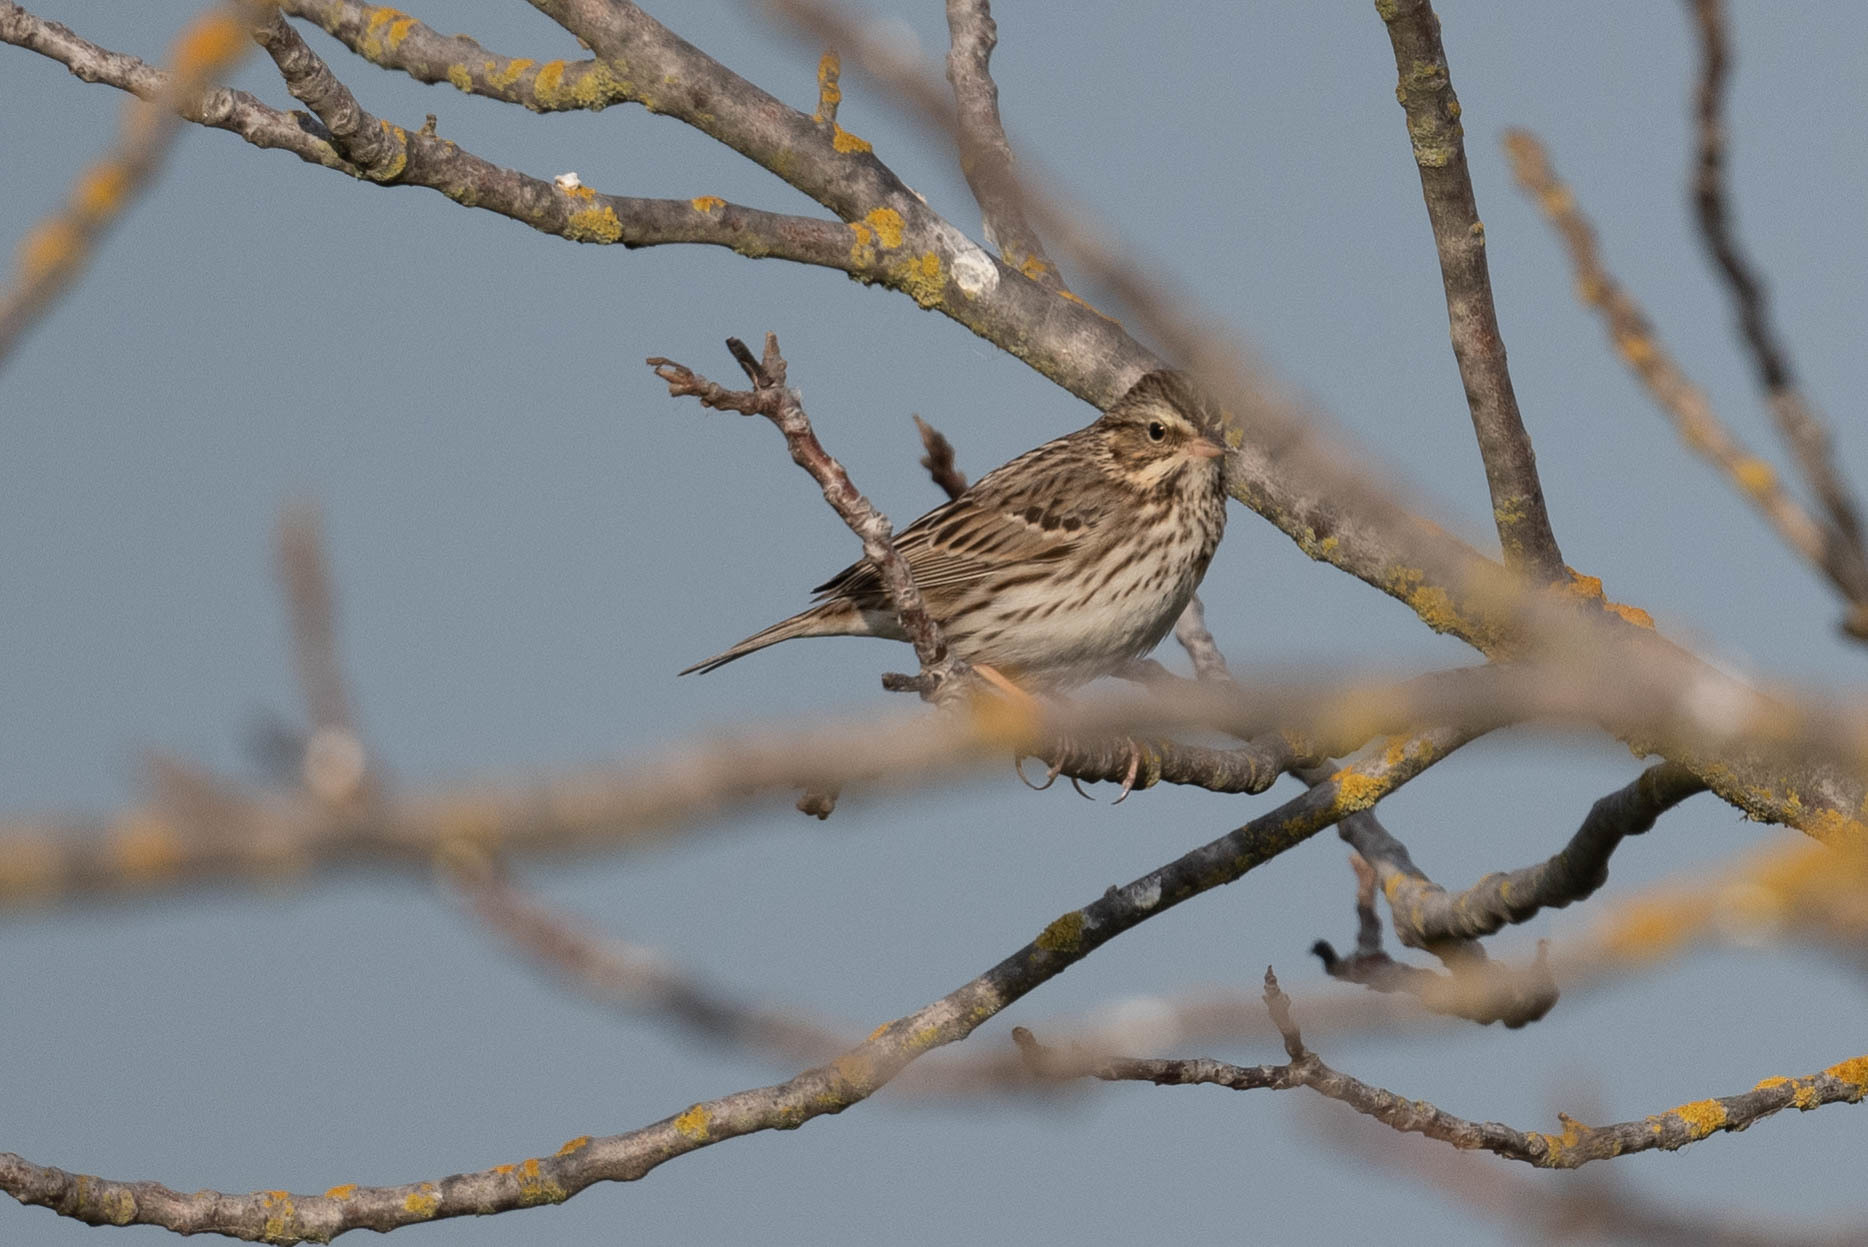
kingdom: Animalia
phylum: Chordata
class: Aves
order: Passeriformes
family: Passerellidae
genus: Passerculus
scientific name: Passerculus sandwichensis
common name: Savannah sparrow
